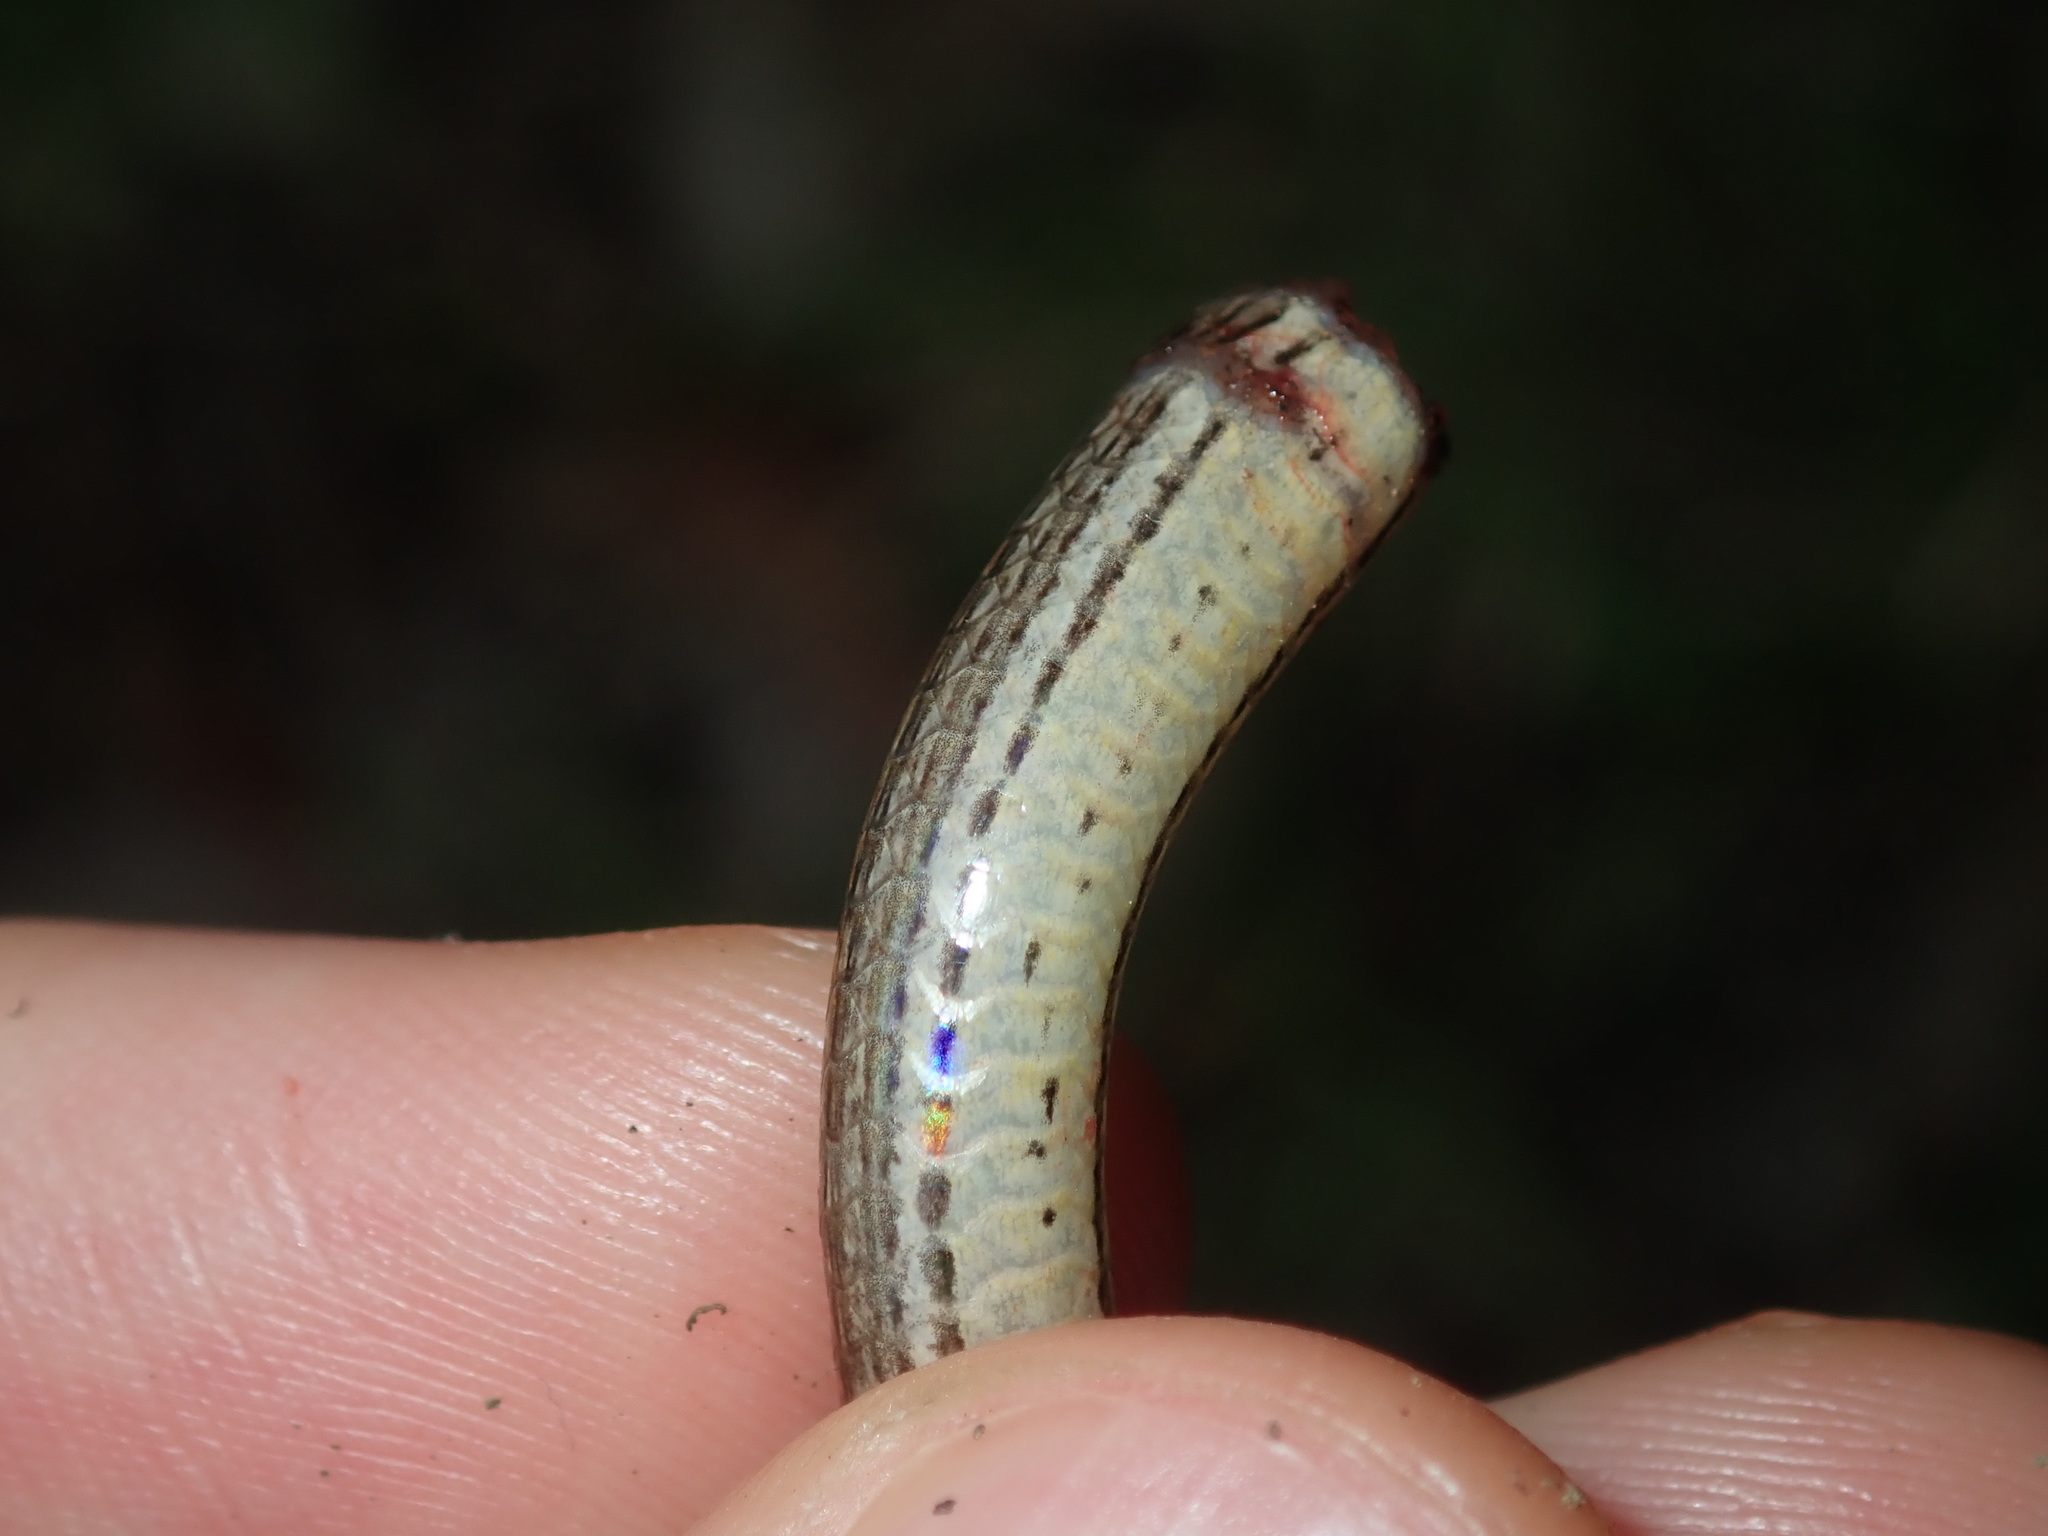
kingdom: Animalia
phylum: Chordata
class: Squamata
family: Scincidae
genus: Saproscincus
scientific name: Saproscincus mustelinus
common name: Southern weasel skink
